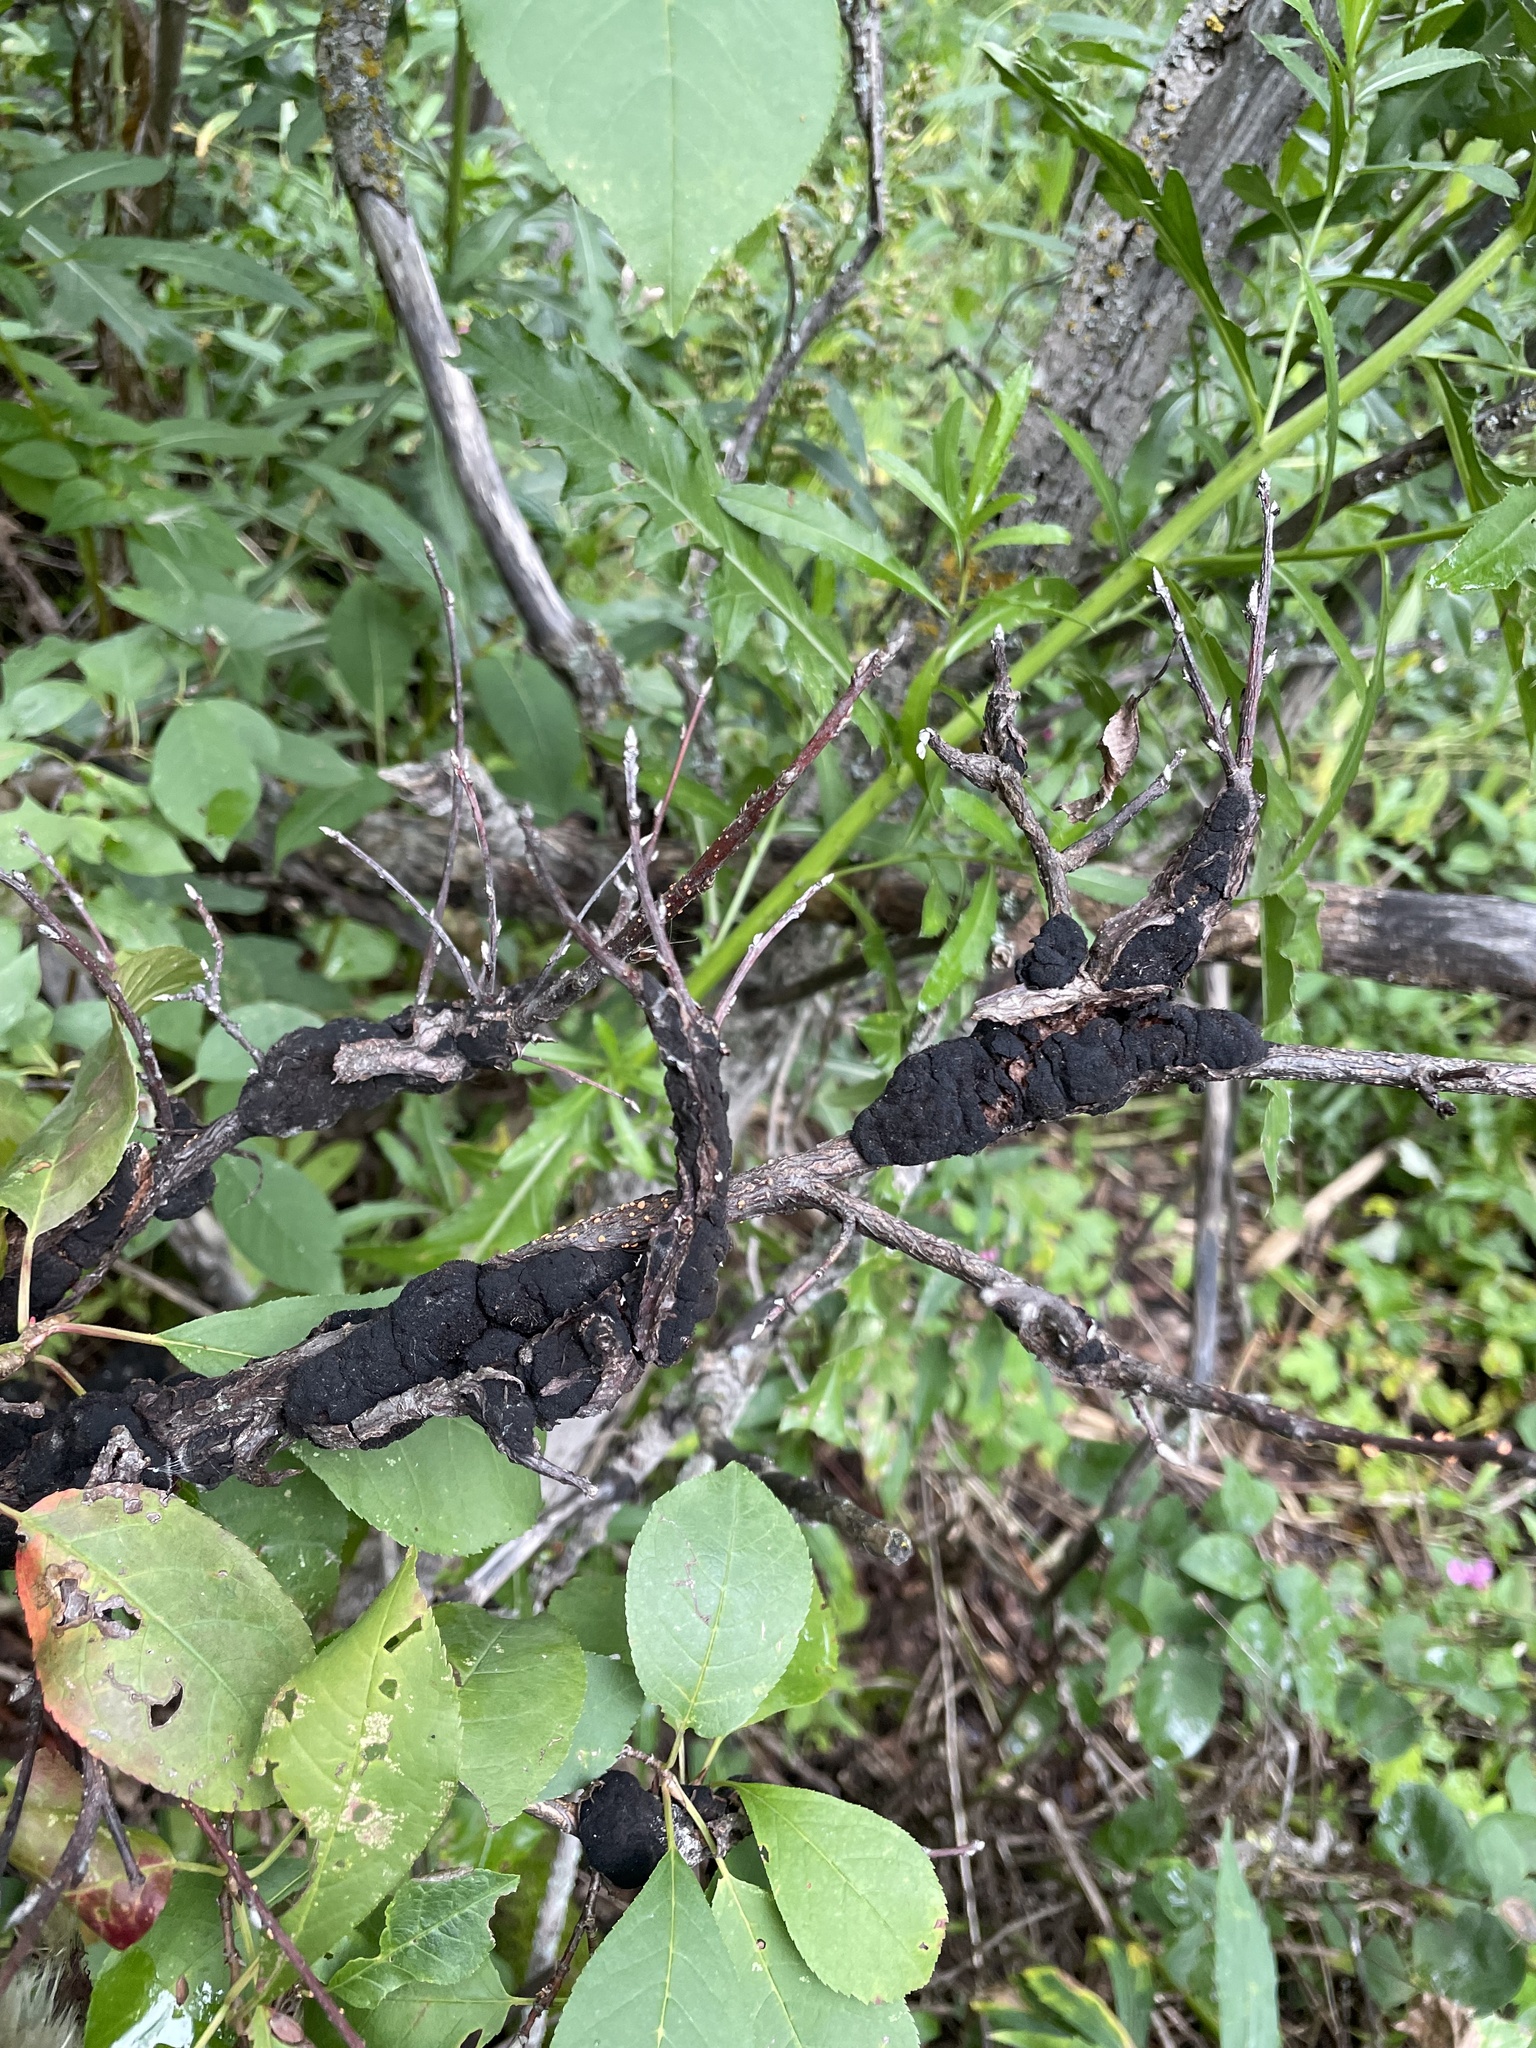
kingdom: Fungi
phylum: Ascomycota
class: Dothideomycetes
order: Venturiales
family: Venturiaceae
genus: Apiosporina
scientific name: Apiosporina morbosa
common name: Black knot
